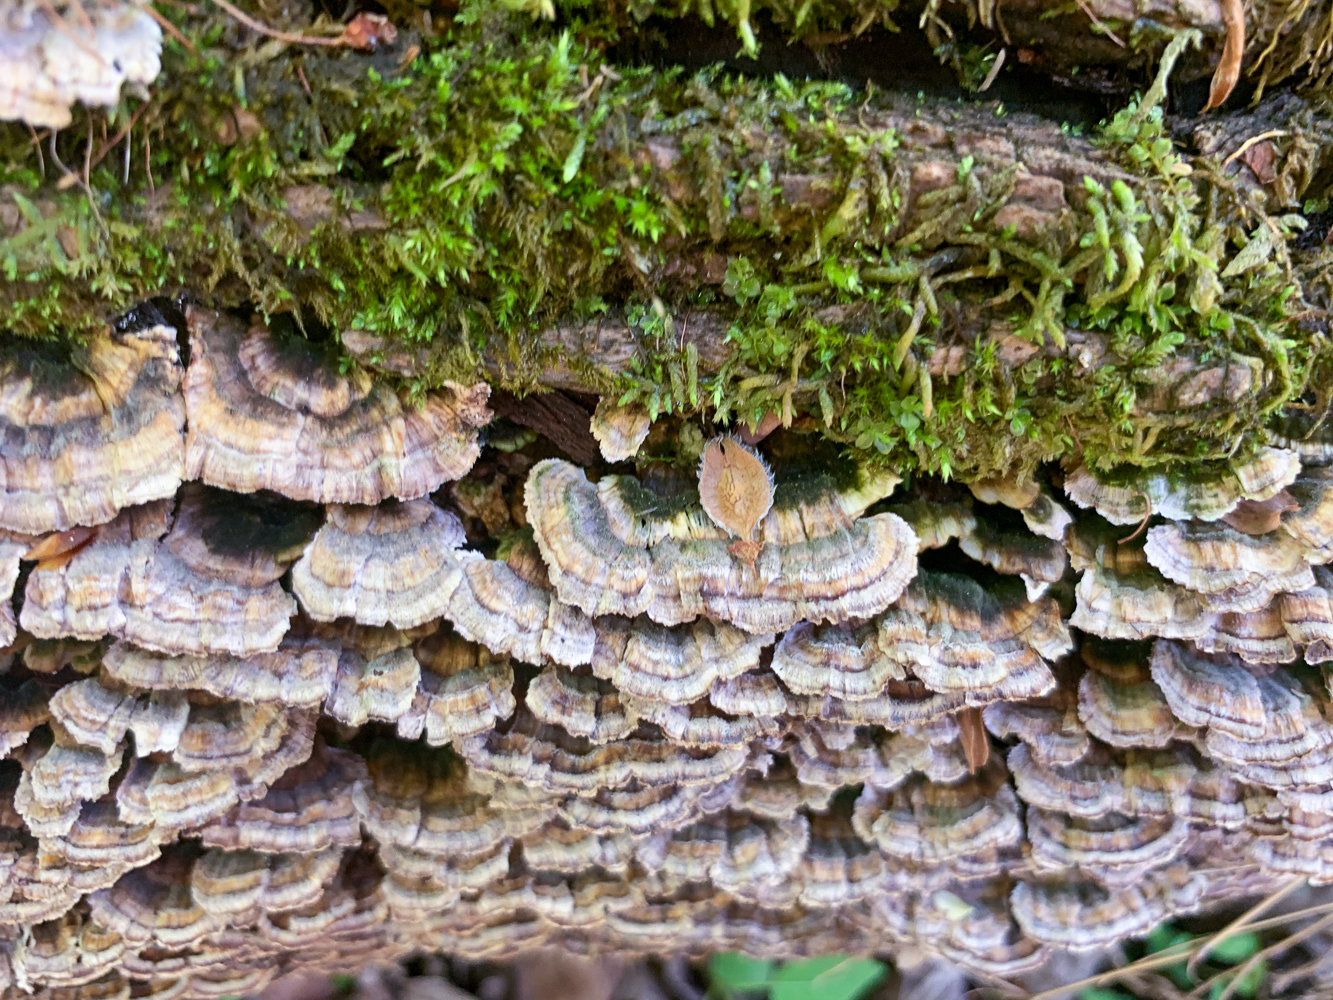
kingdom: Fungi
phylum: Basidiomycota
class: Agaricomycetes
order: Polyporales
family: Polyporaceae
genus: Trametes
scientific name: Trametes versicolor
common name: Turkeytail
